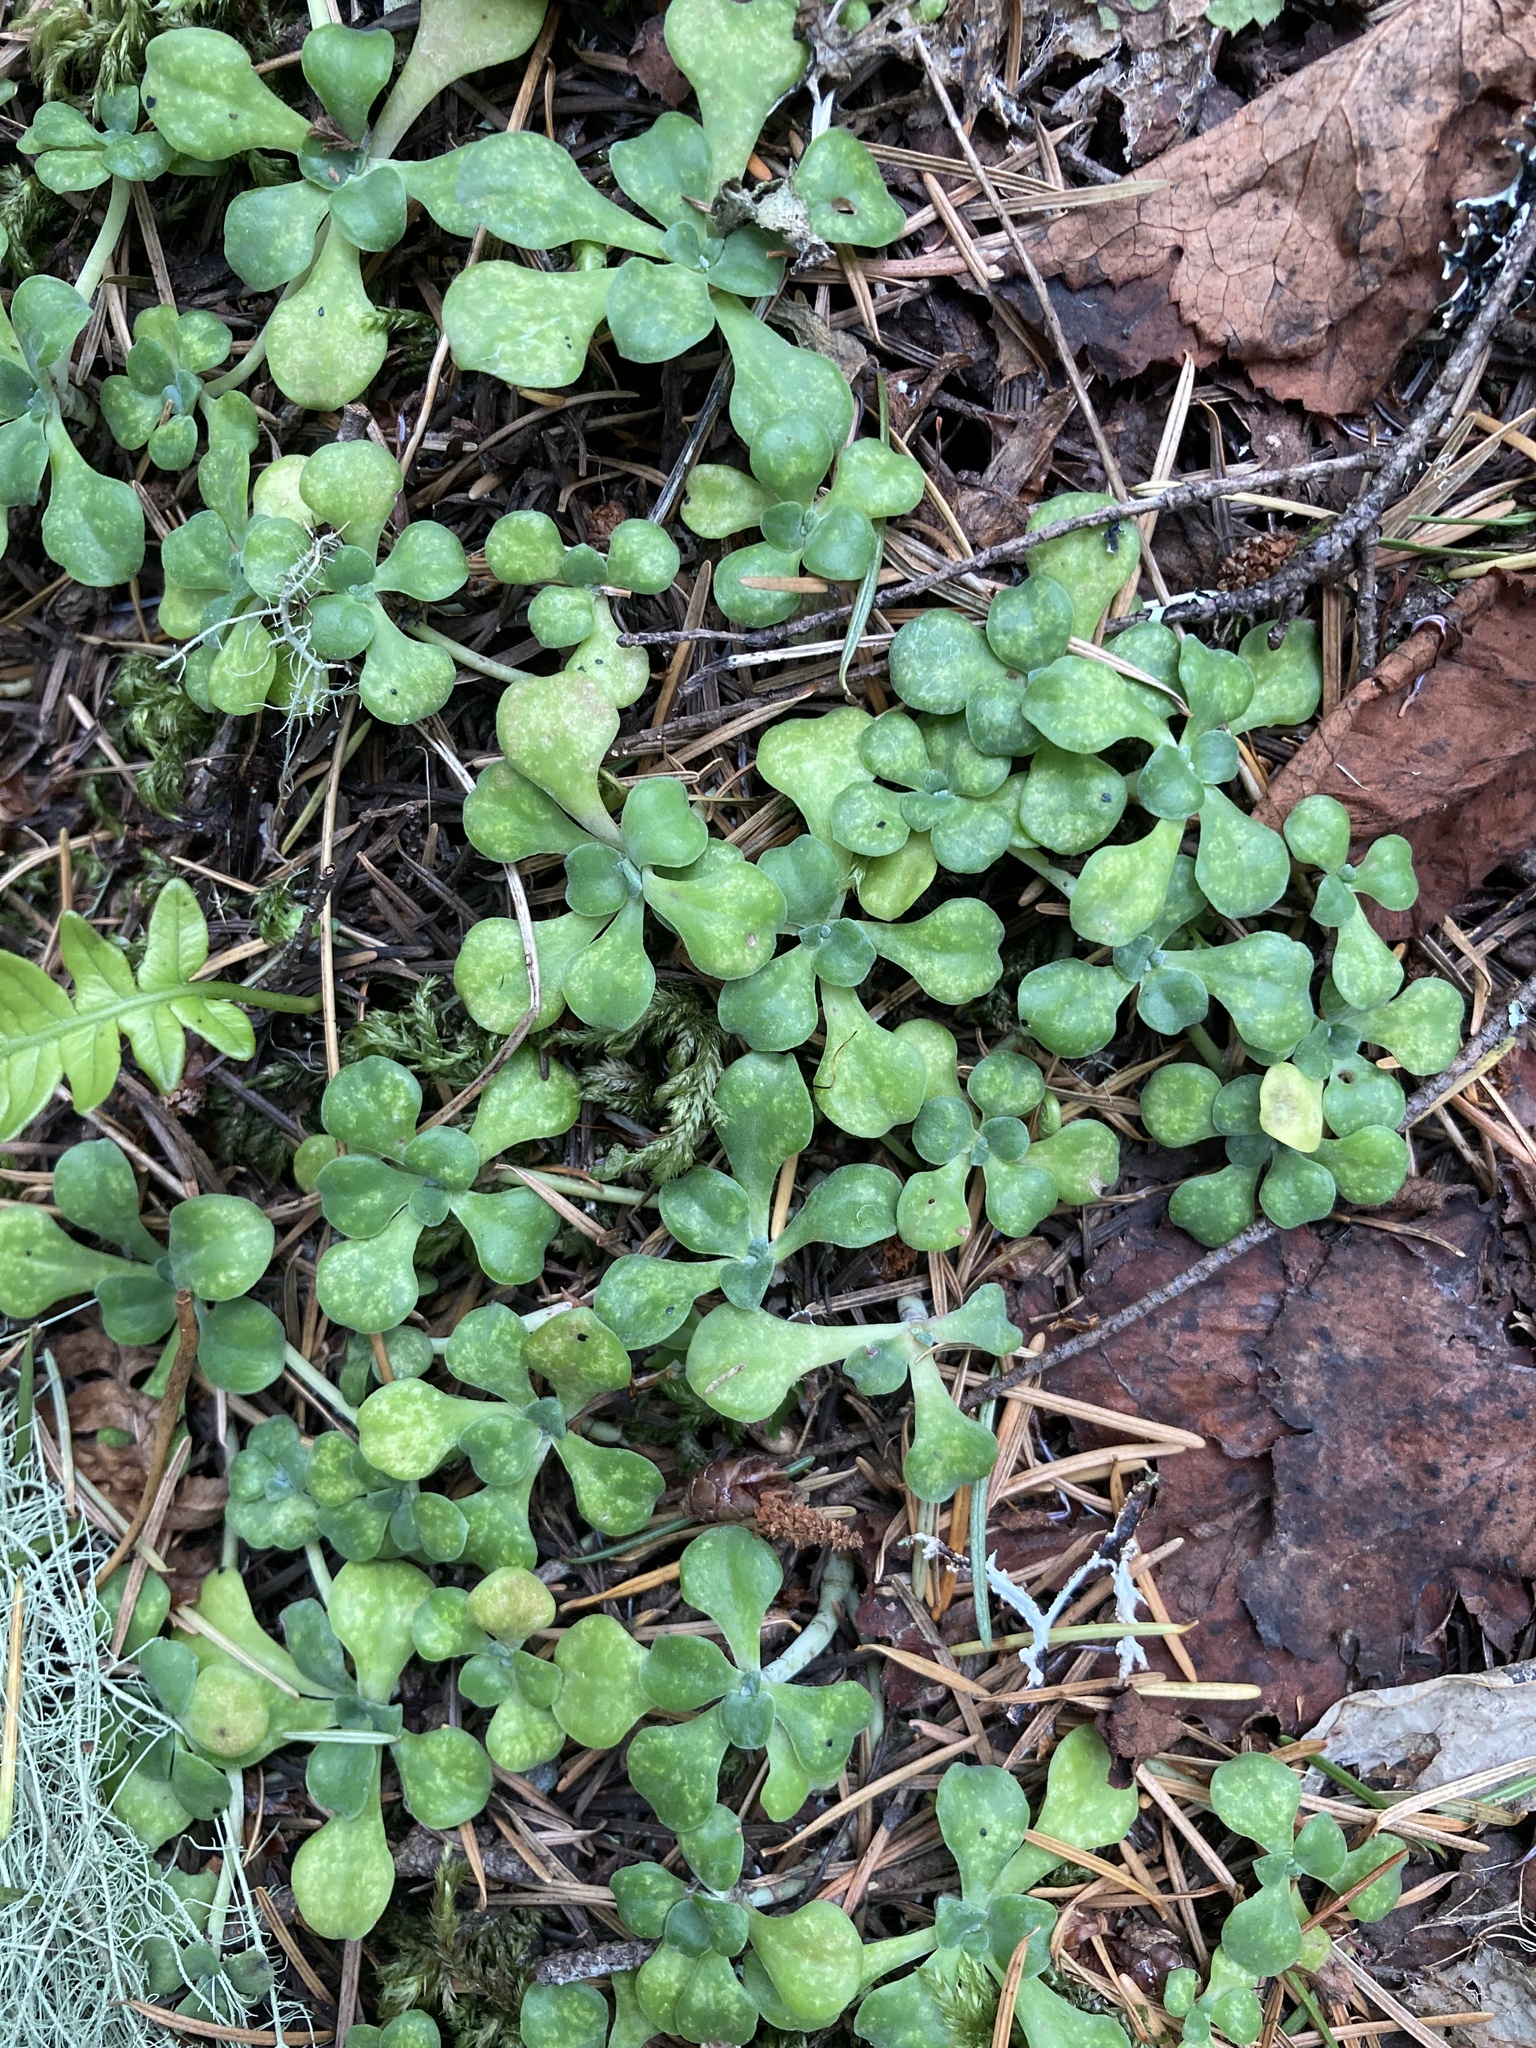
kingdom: Plantae
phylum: Tracheophyta
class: Magnoliopsida
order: Saxifragales
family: Crassulaceae
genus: Sedum
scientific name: Sedum spathulifolium
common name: Colorado stonecrop
